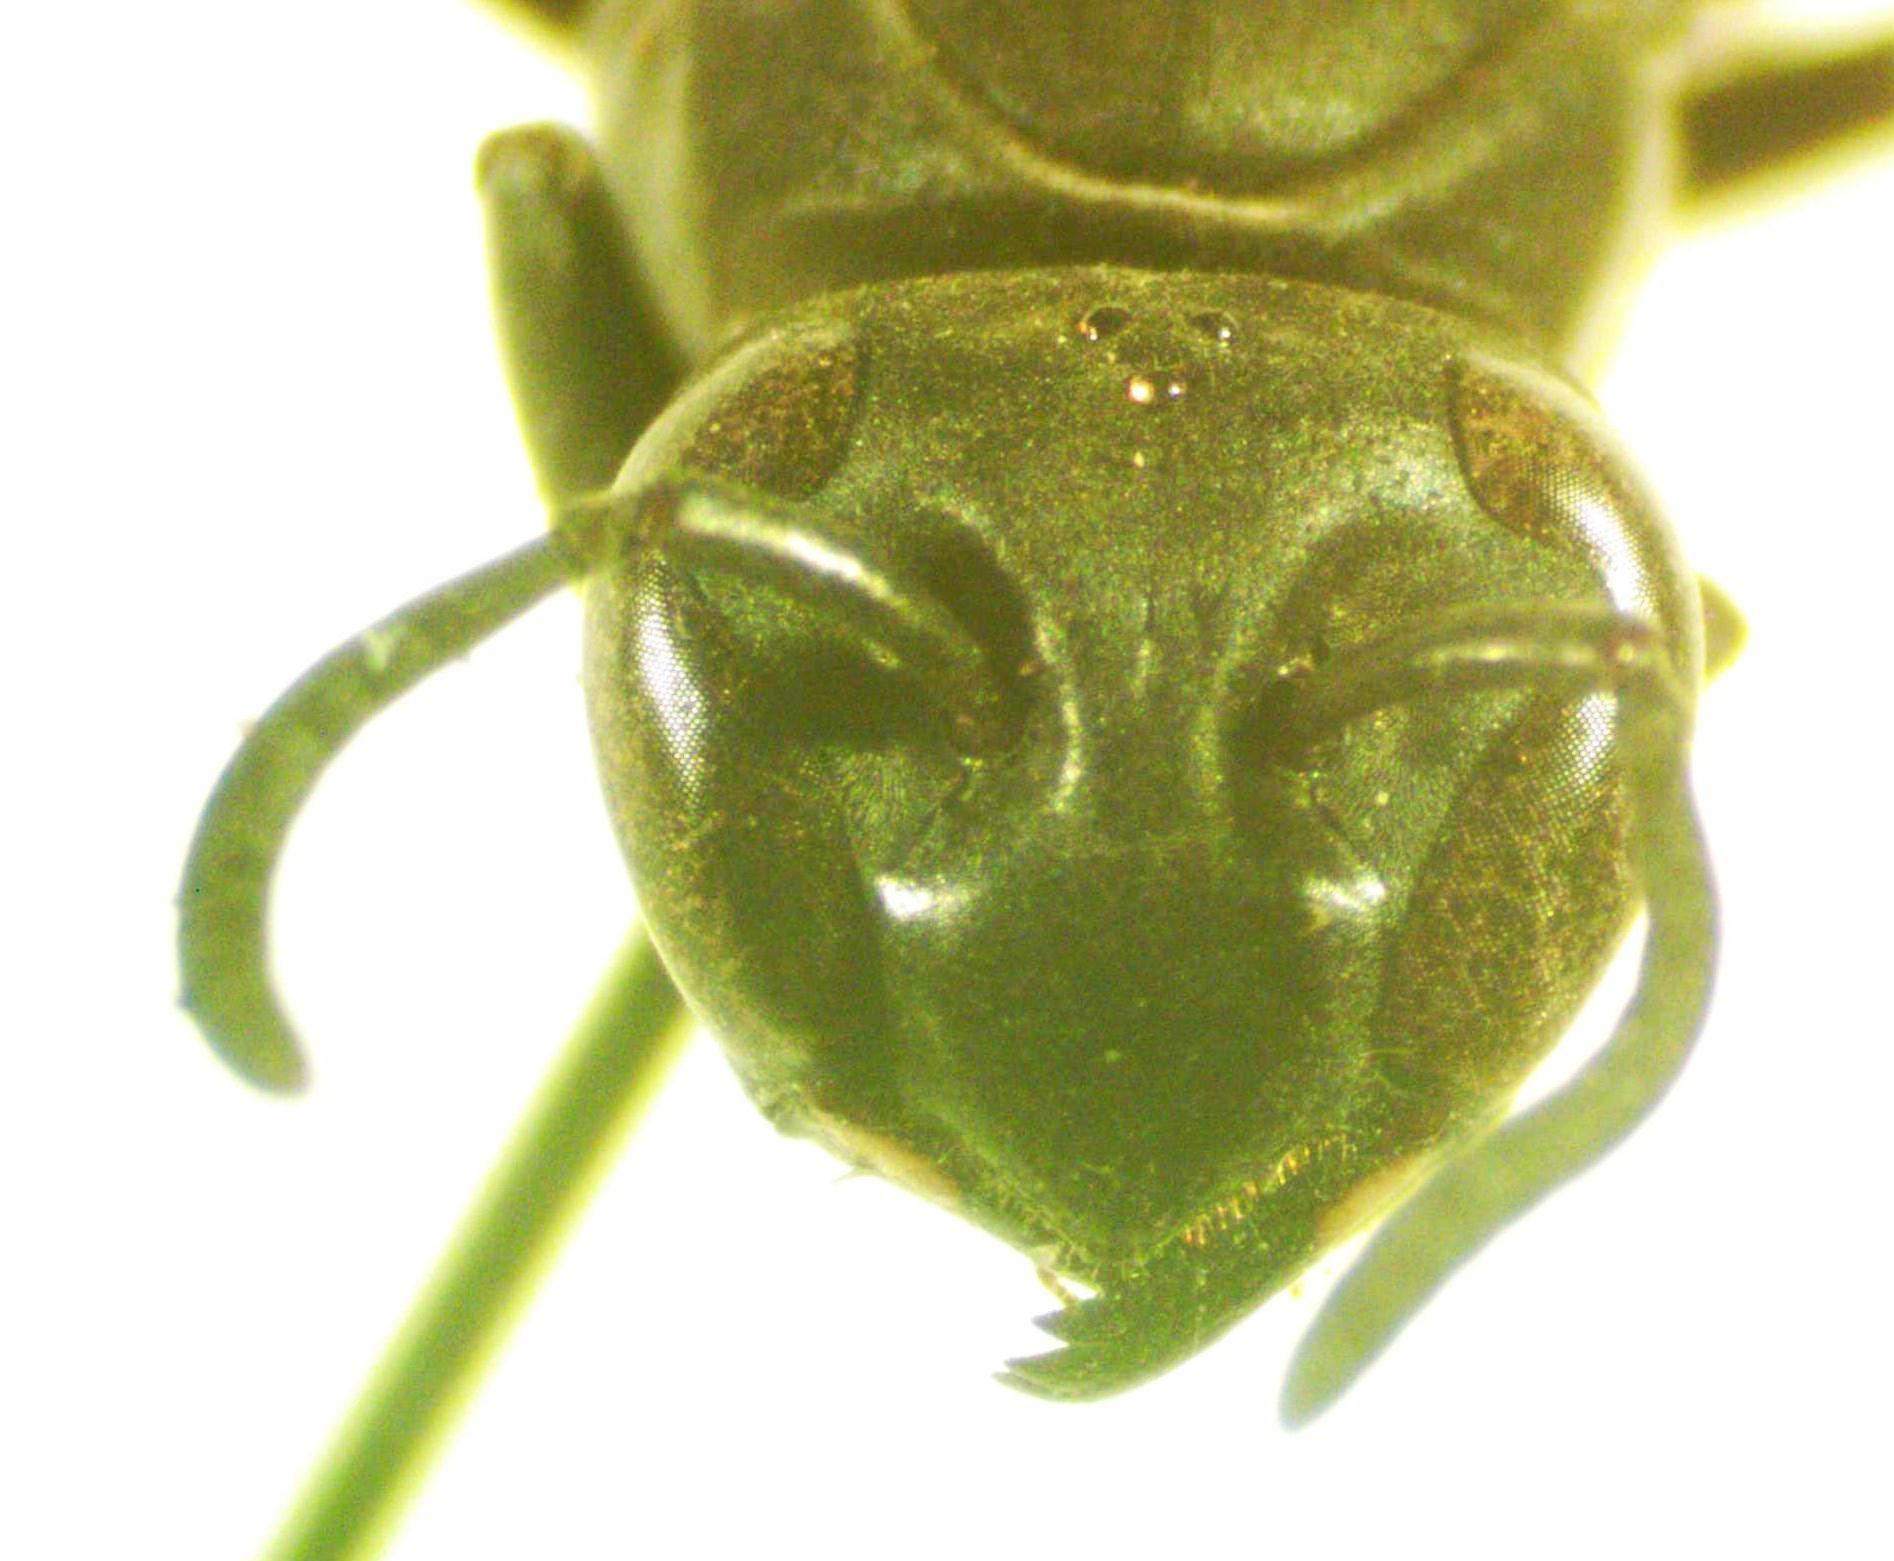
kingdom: Animalia
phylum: Arthropoda
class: Insecta
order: Hymenoptera
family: Eumenidae
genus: Polybia
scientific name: Polybia simillima
